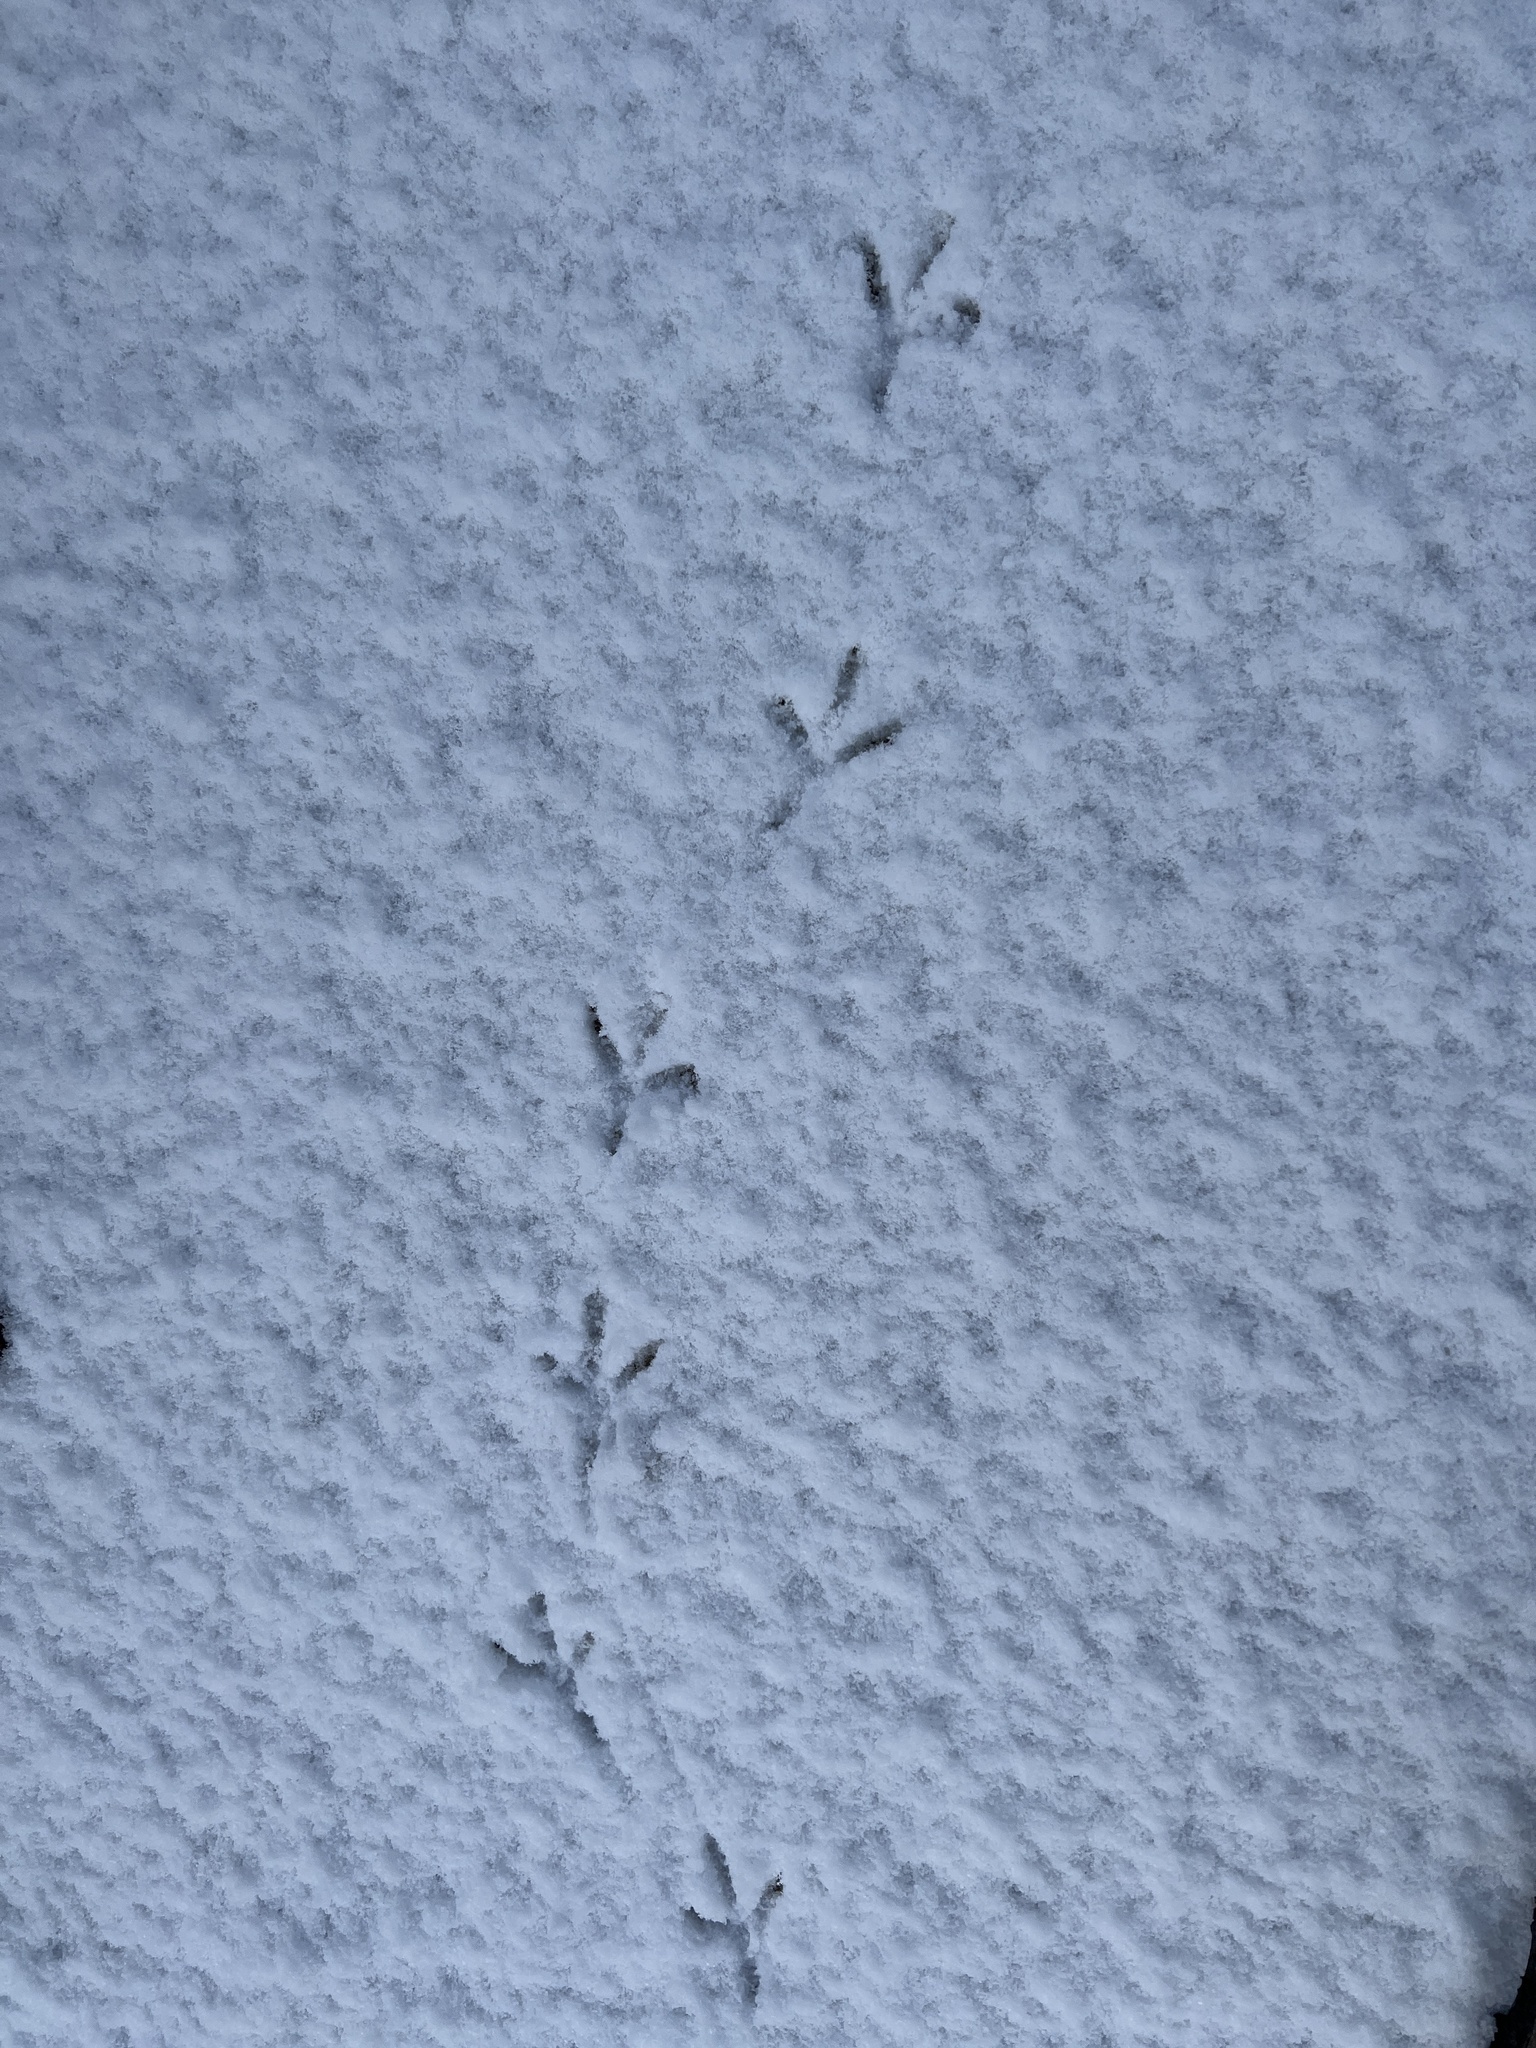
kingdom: Animalia
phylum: Chordata
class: Aves
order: Columbiformes
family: Columbidae
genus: Columba
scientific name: Columba livia
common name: Rock pigeon
